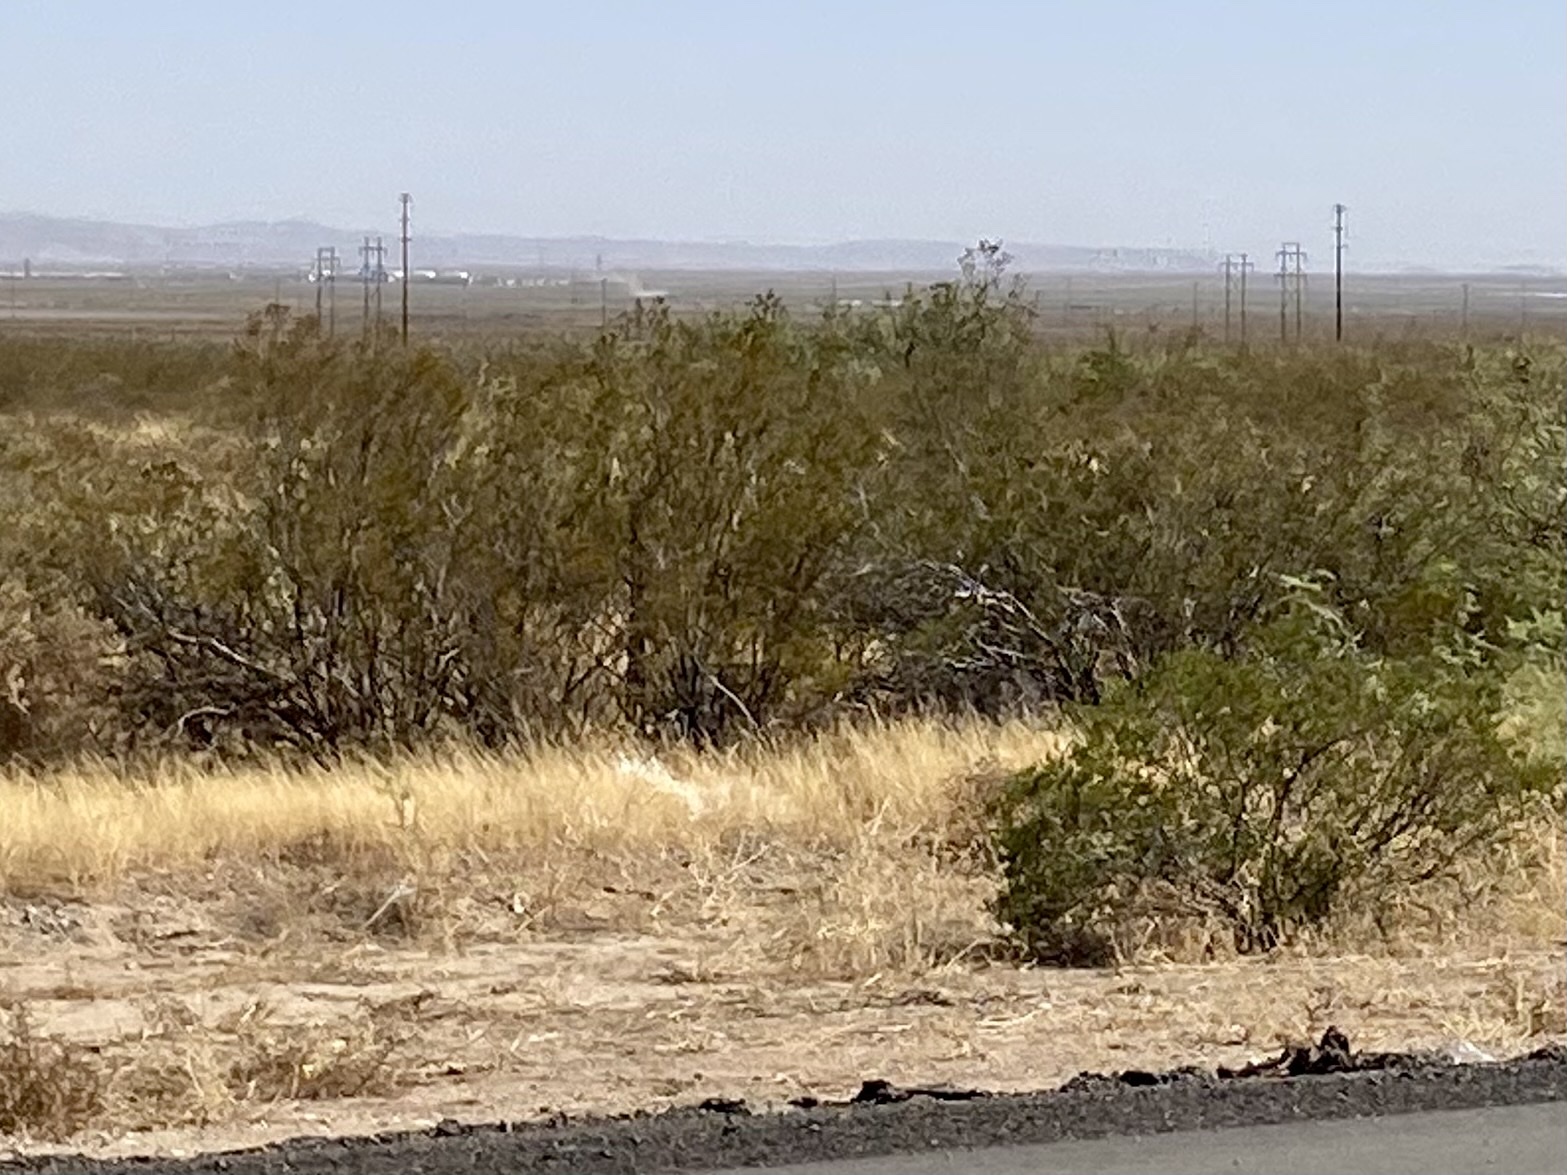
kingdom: Plantae
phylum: Tracheophyta
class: Magnoliopsida
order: Zygophyllales
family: Zygophyllaceae
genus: Larrea
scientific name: Larrea tridentata
